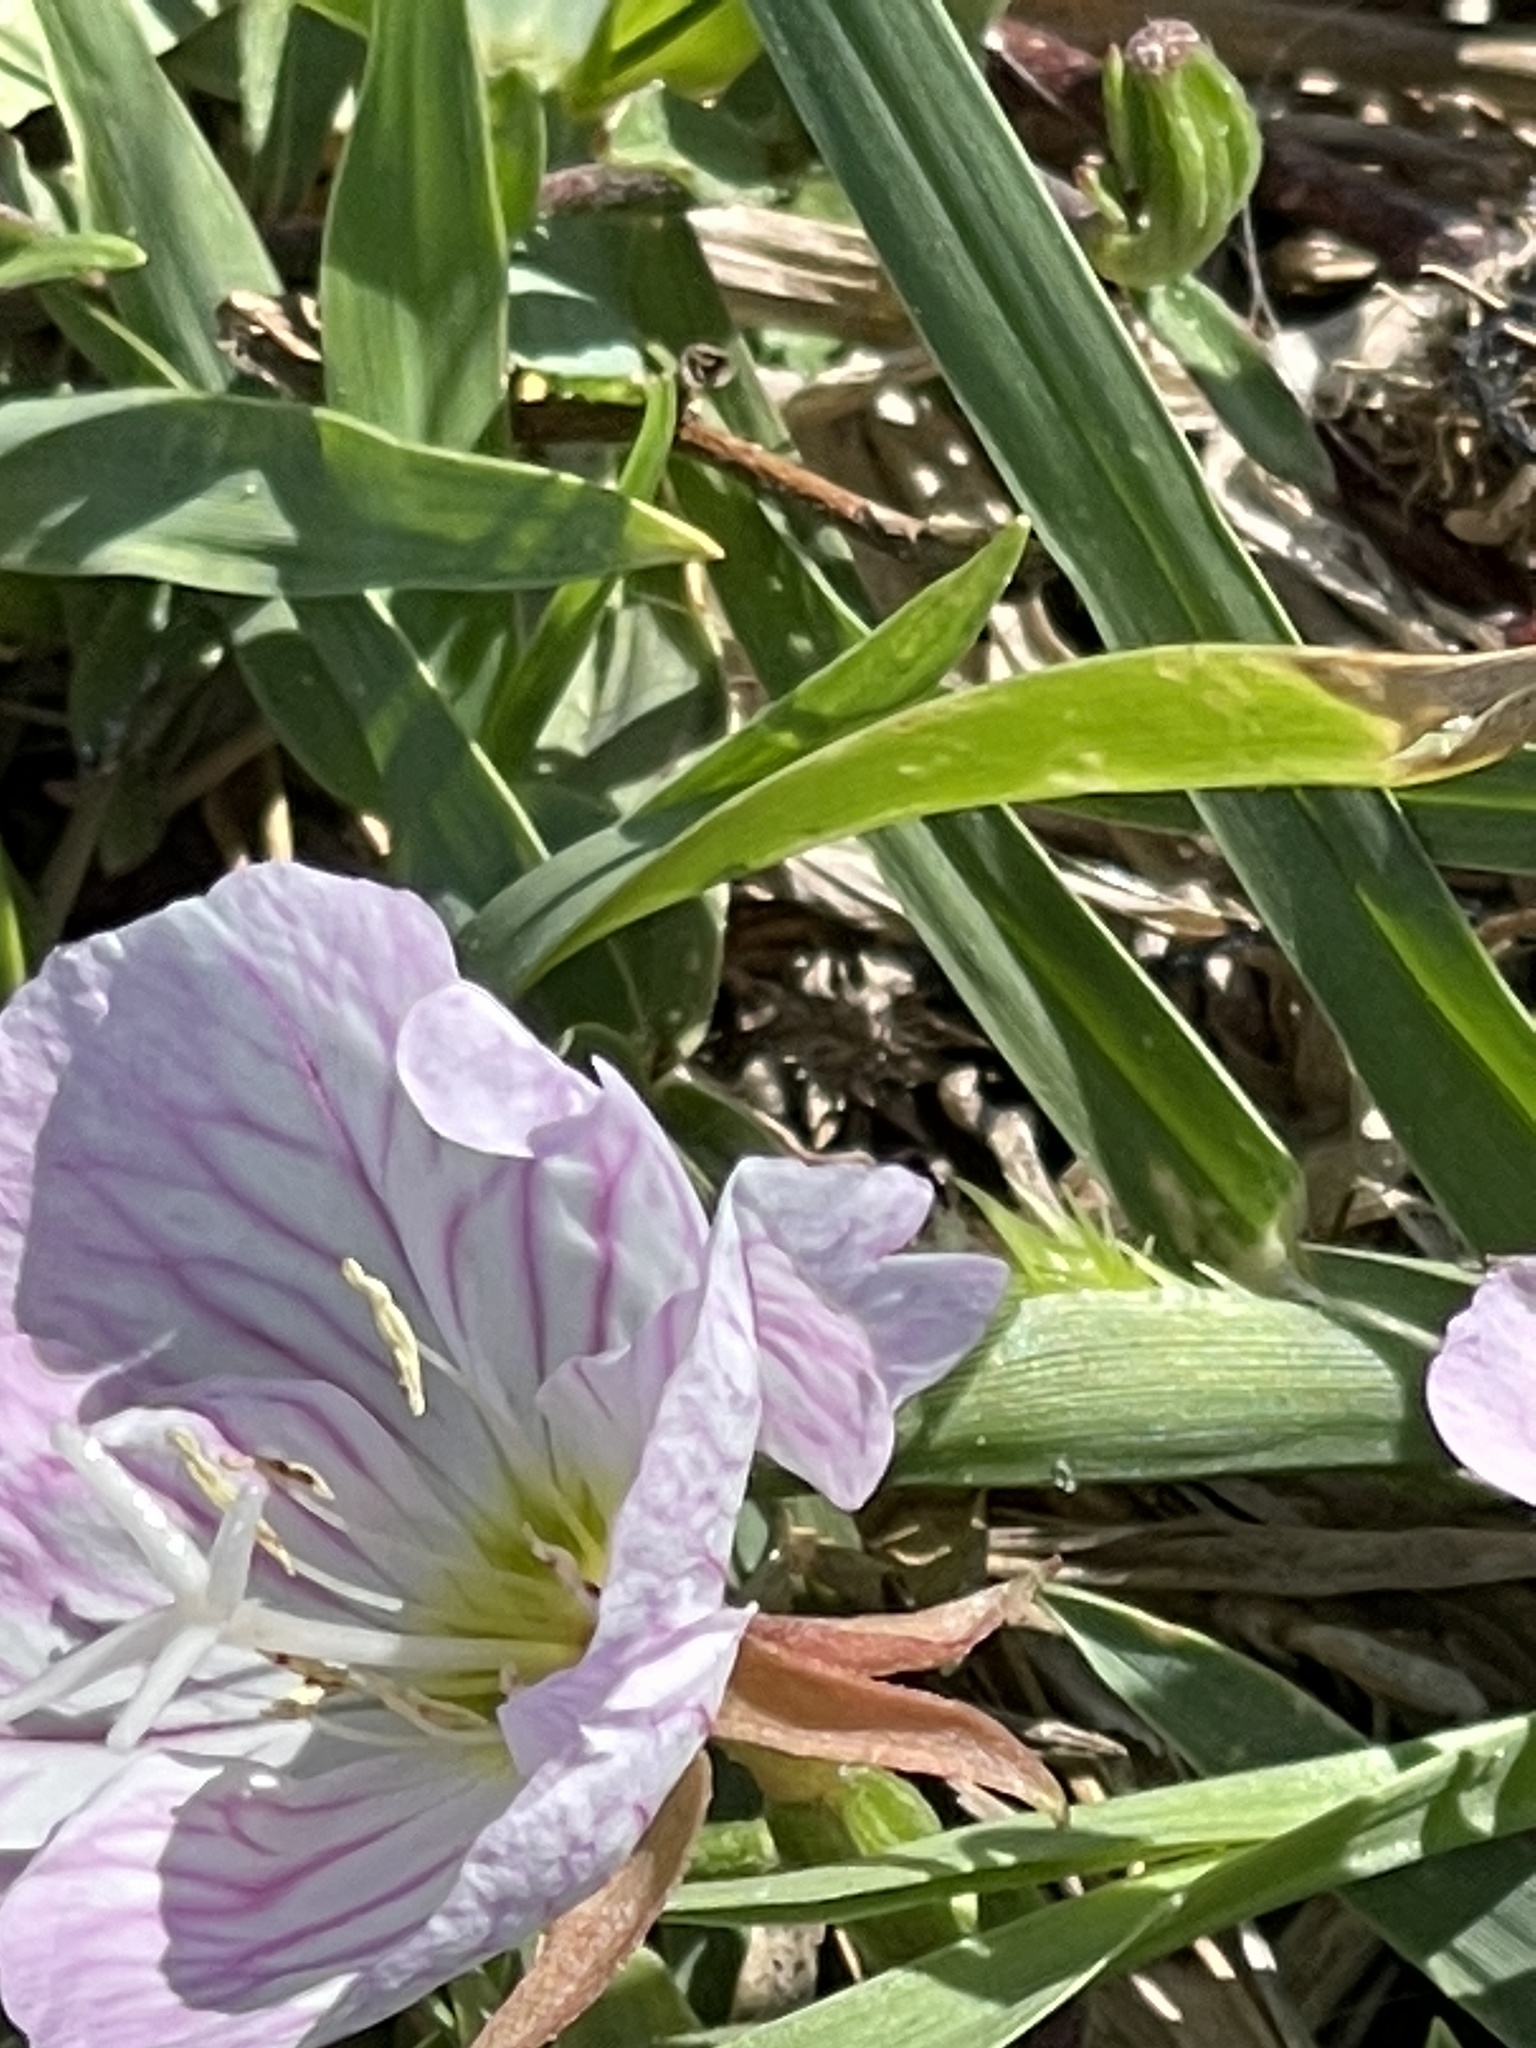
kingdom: Plantae
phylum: Tracheophyta
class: Magnoliopsida
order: Myrtales
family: Onagraceae
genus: Oenothera
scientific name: Oenothera speciosa
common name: White evening-primrose
